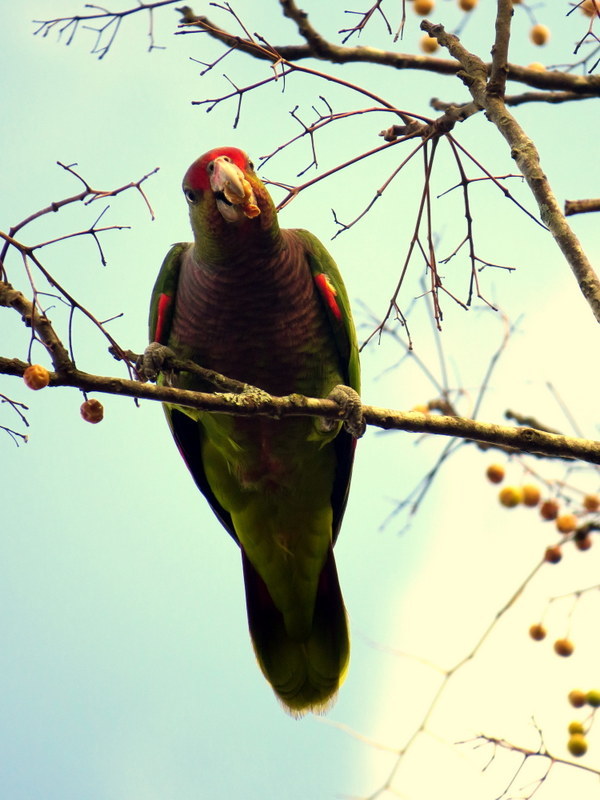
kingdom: Animalia
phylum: Chordata
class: Aves
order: Psittaciformes
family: Psittacidae
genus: Amazona
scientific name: Amazona vinacea
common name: Vinaceous-breasted amazon
